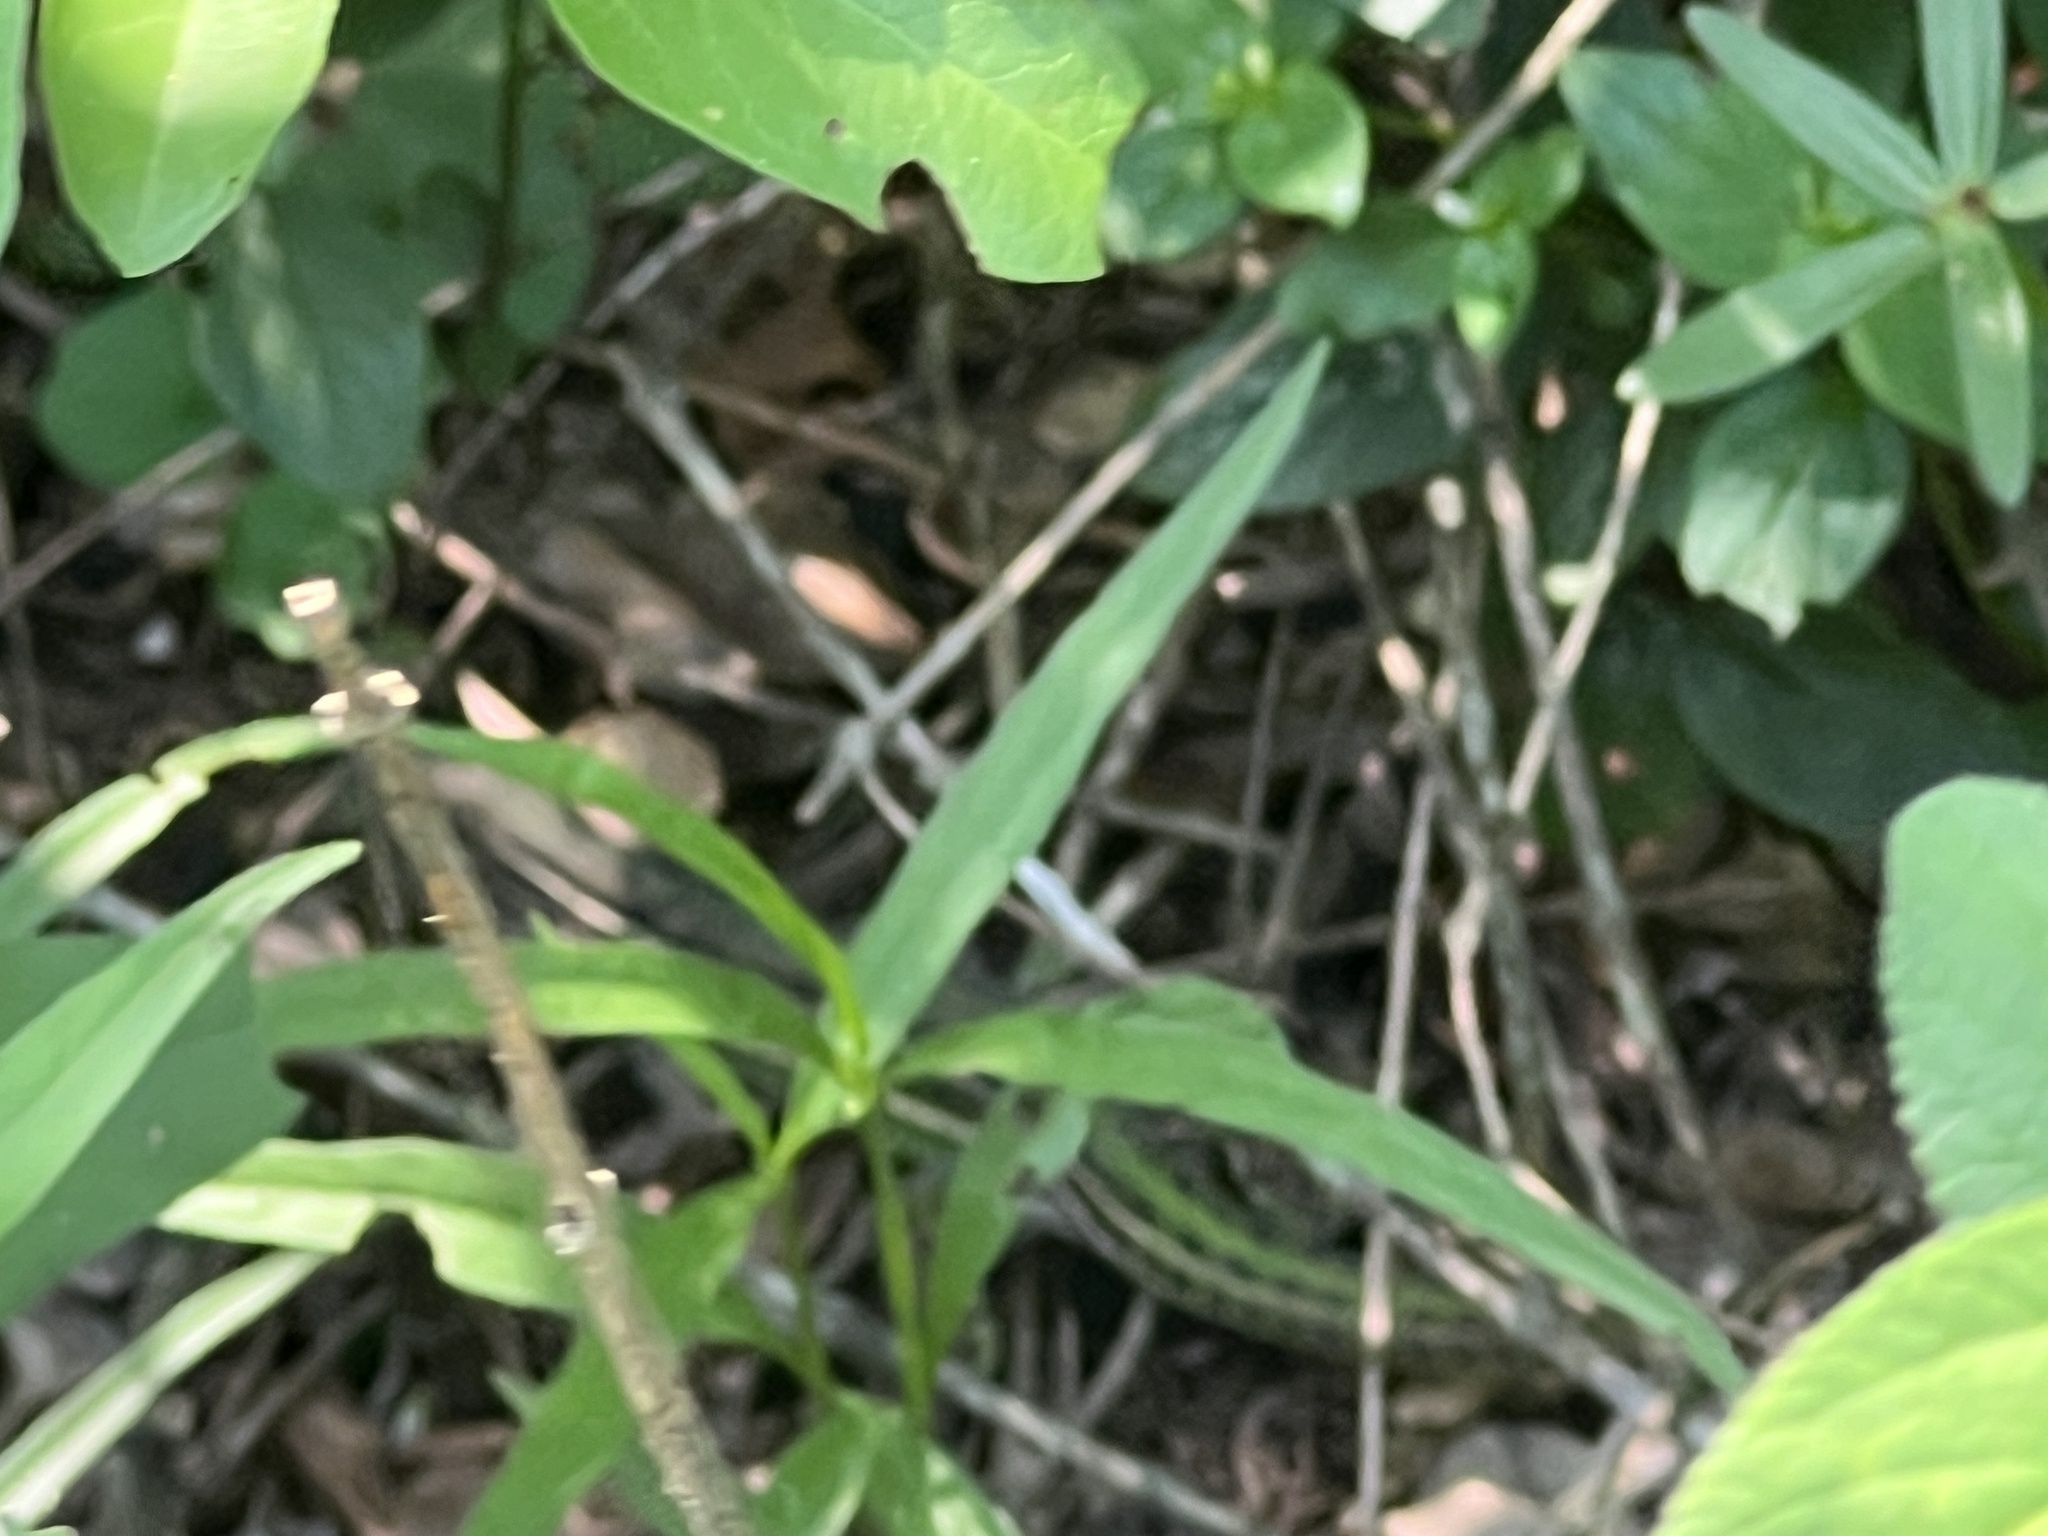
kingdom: Animalia
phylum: Chordata
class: Squamata
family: Teiidae
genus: Teius
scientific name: Teius oculatus
